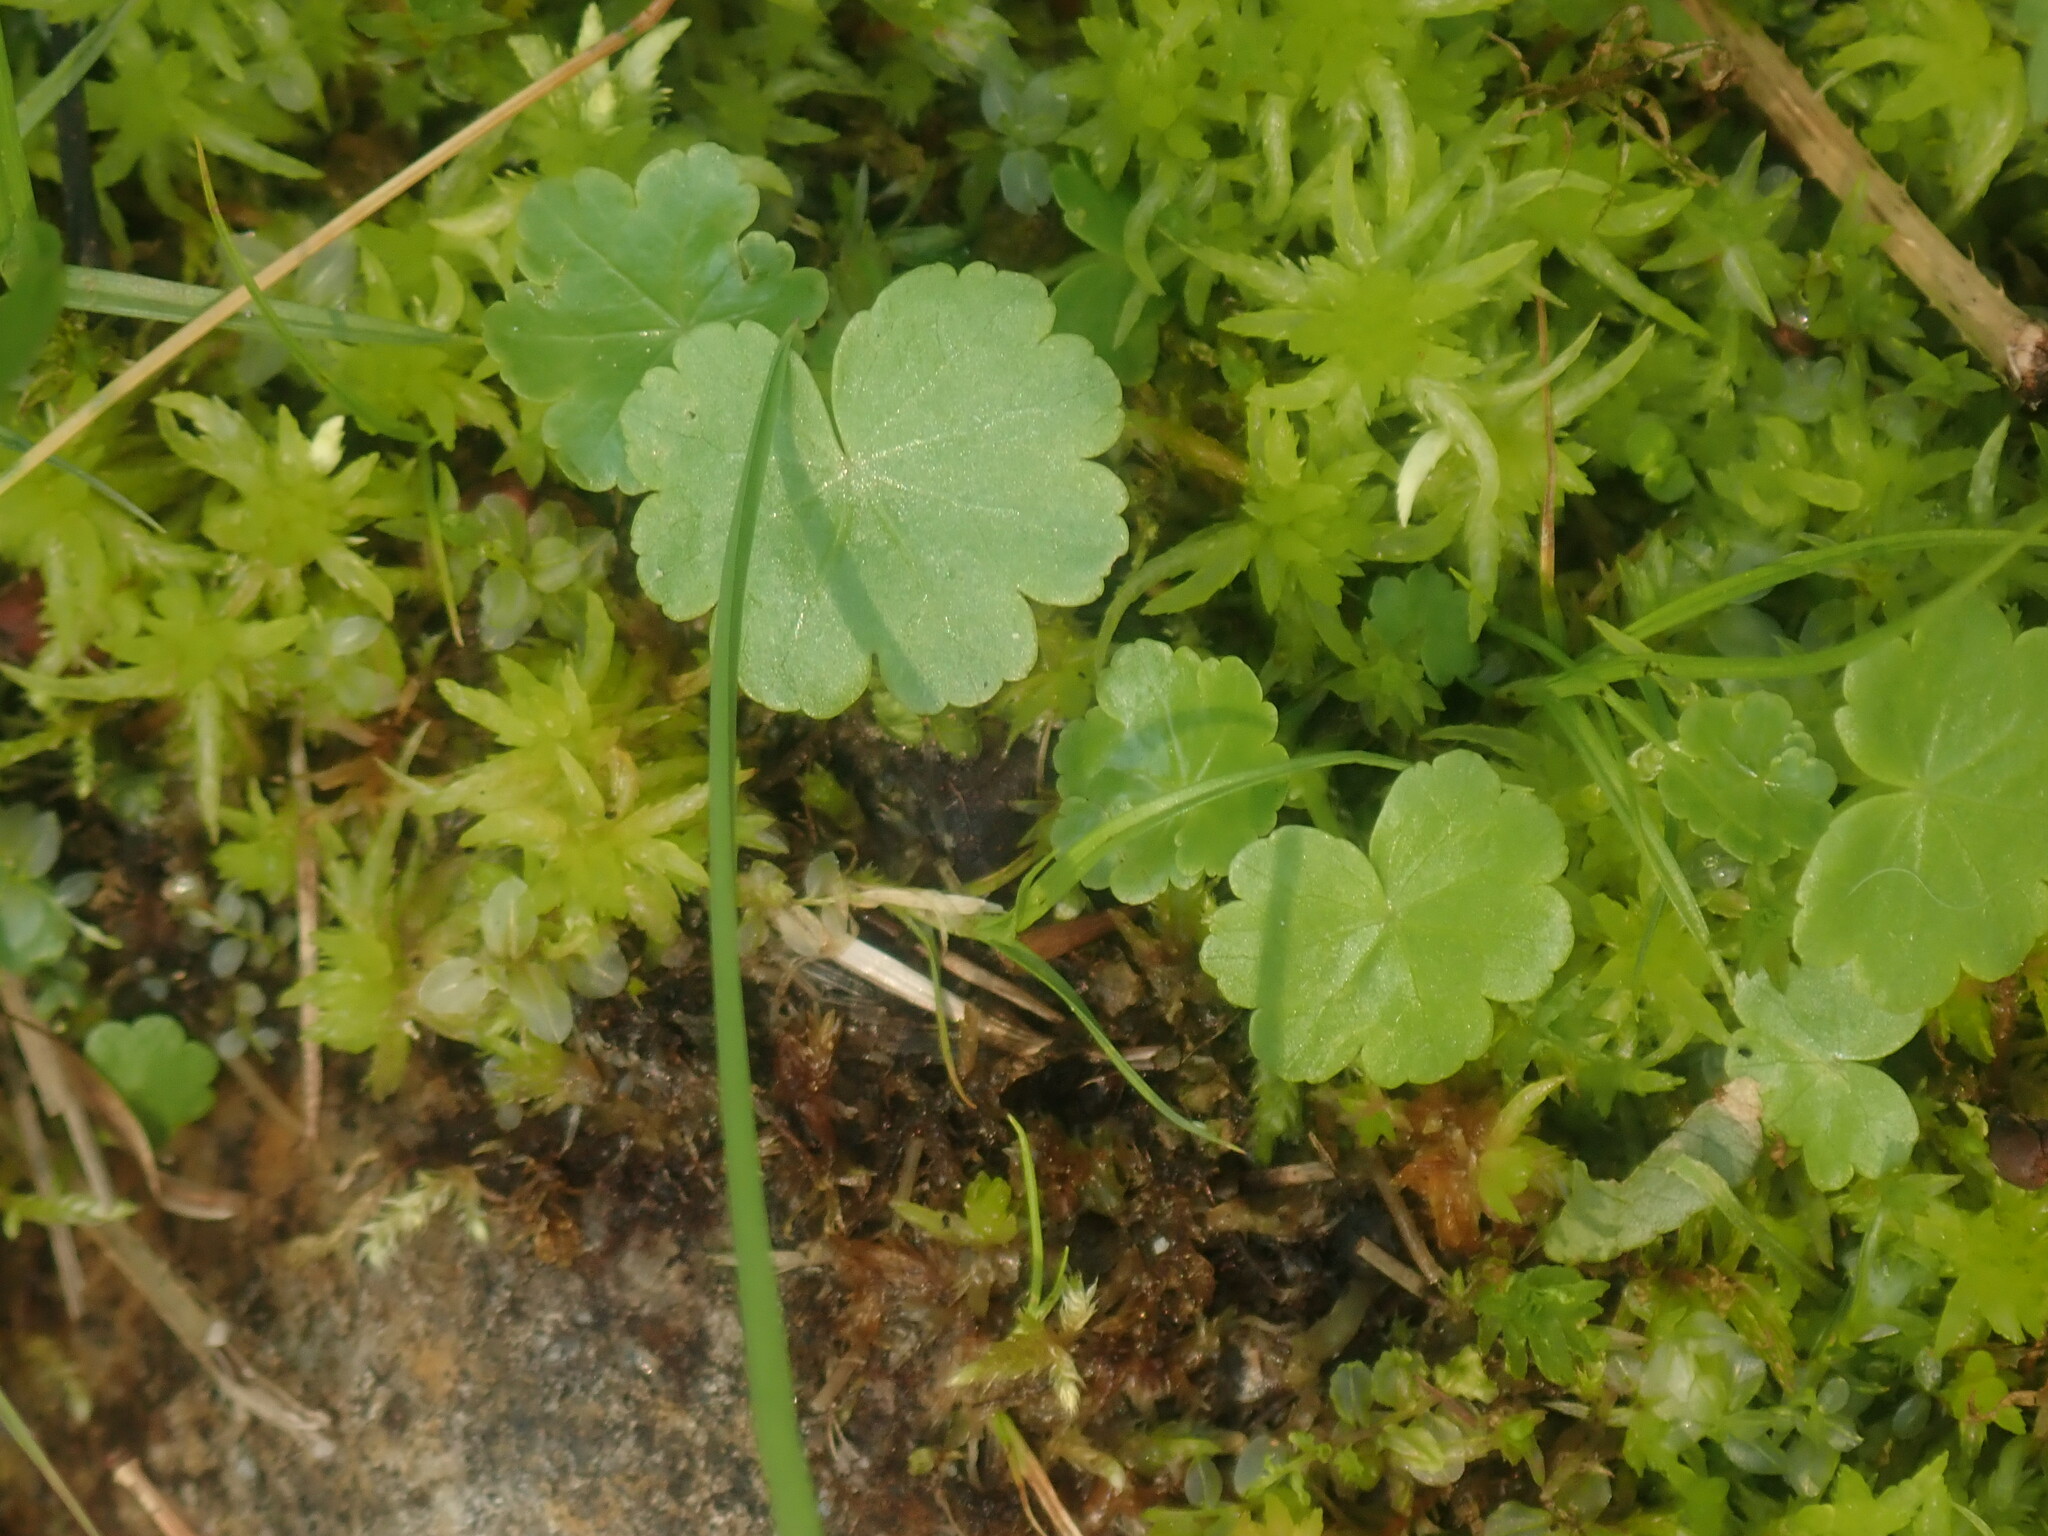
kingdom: Plantae
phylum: Tracheophyta
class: Magnoliopsida
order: Apiales
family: Araliaceae
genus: Hydrocotyle
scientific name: Hydrocotyle americana
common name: American water-pennywort
